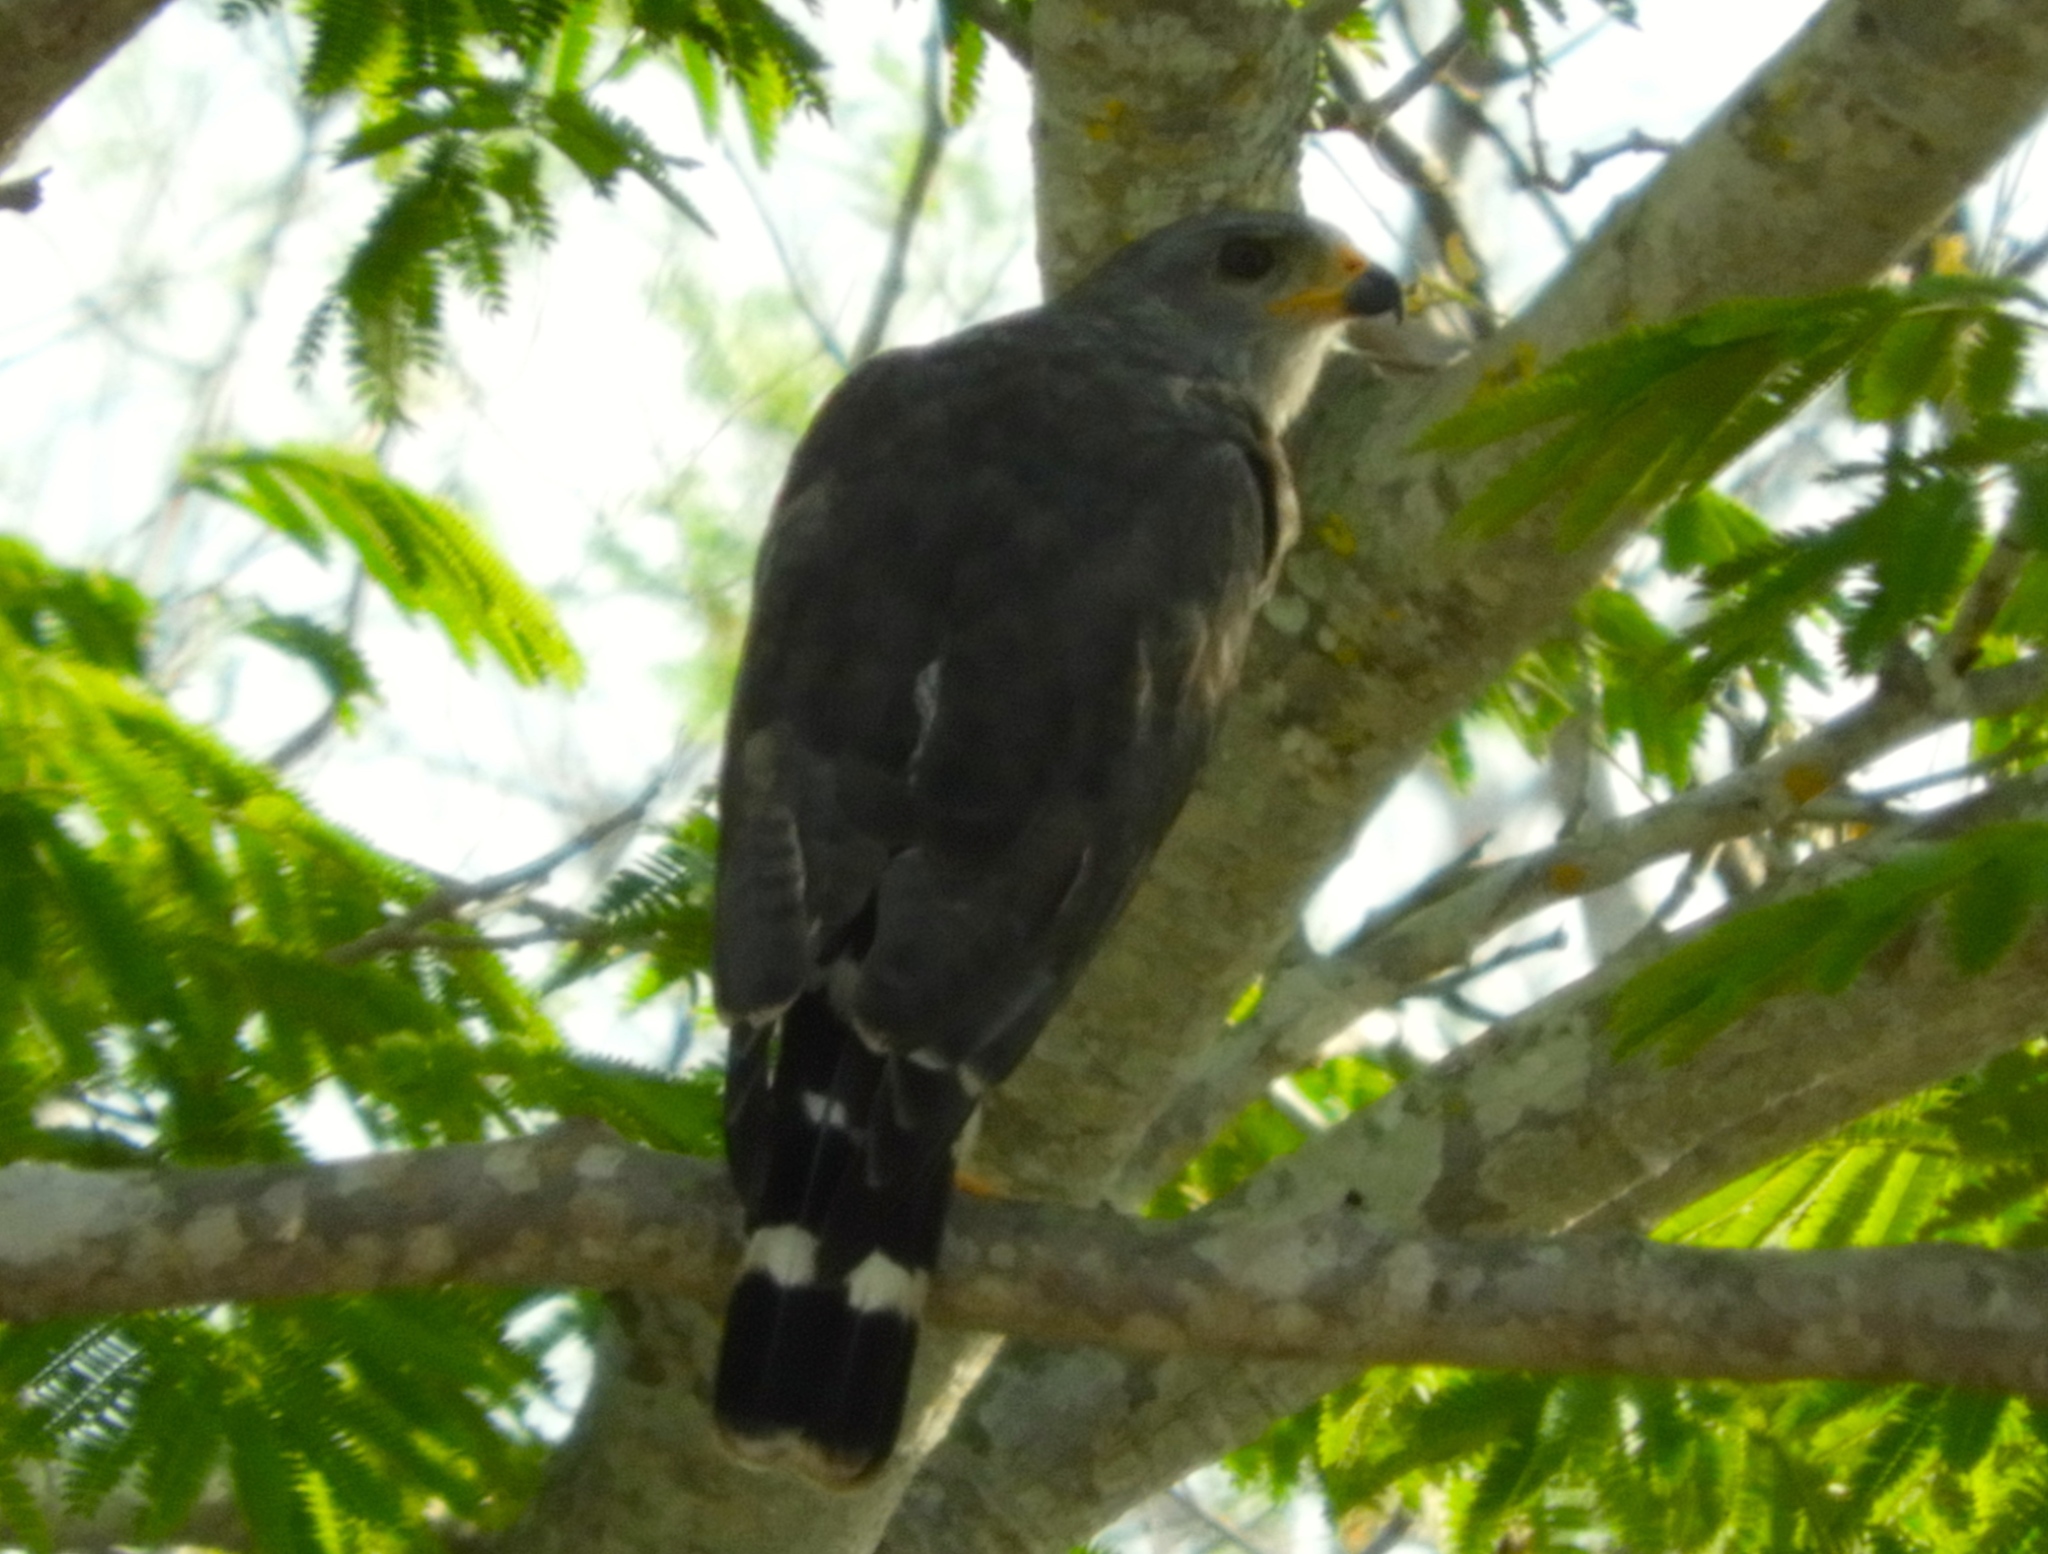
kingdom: Animalia
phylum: Chordata
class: Aves
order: Accipitriformes
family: Accipitridae
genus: Buteo
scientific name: Buteo nitidus
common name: Grey-lined hawk
